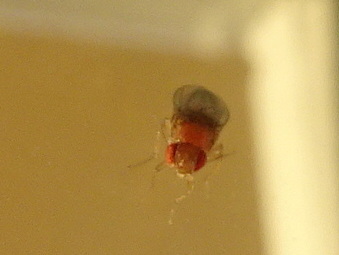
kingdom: Animalia
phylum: Arthropoda
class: Insecta
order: Diptera
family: Drosophilidae
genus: Drosophila
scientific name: Drosophila
